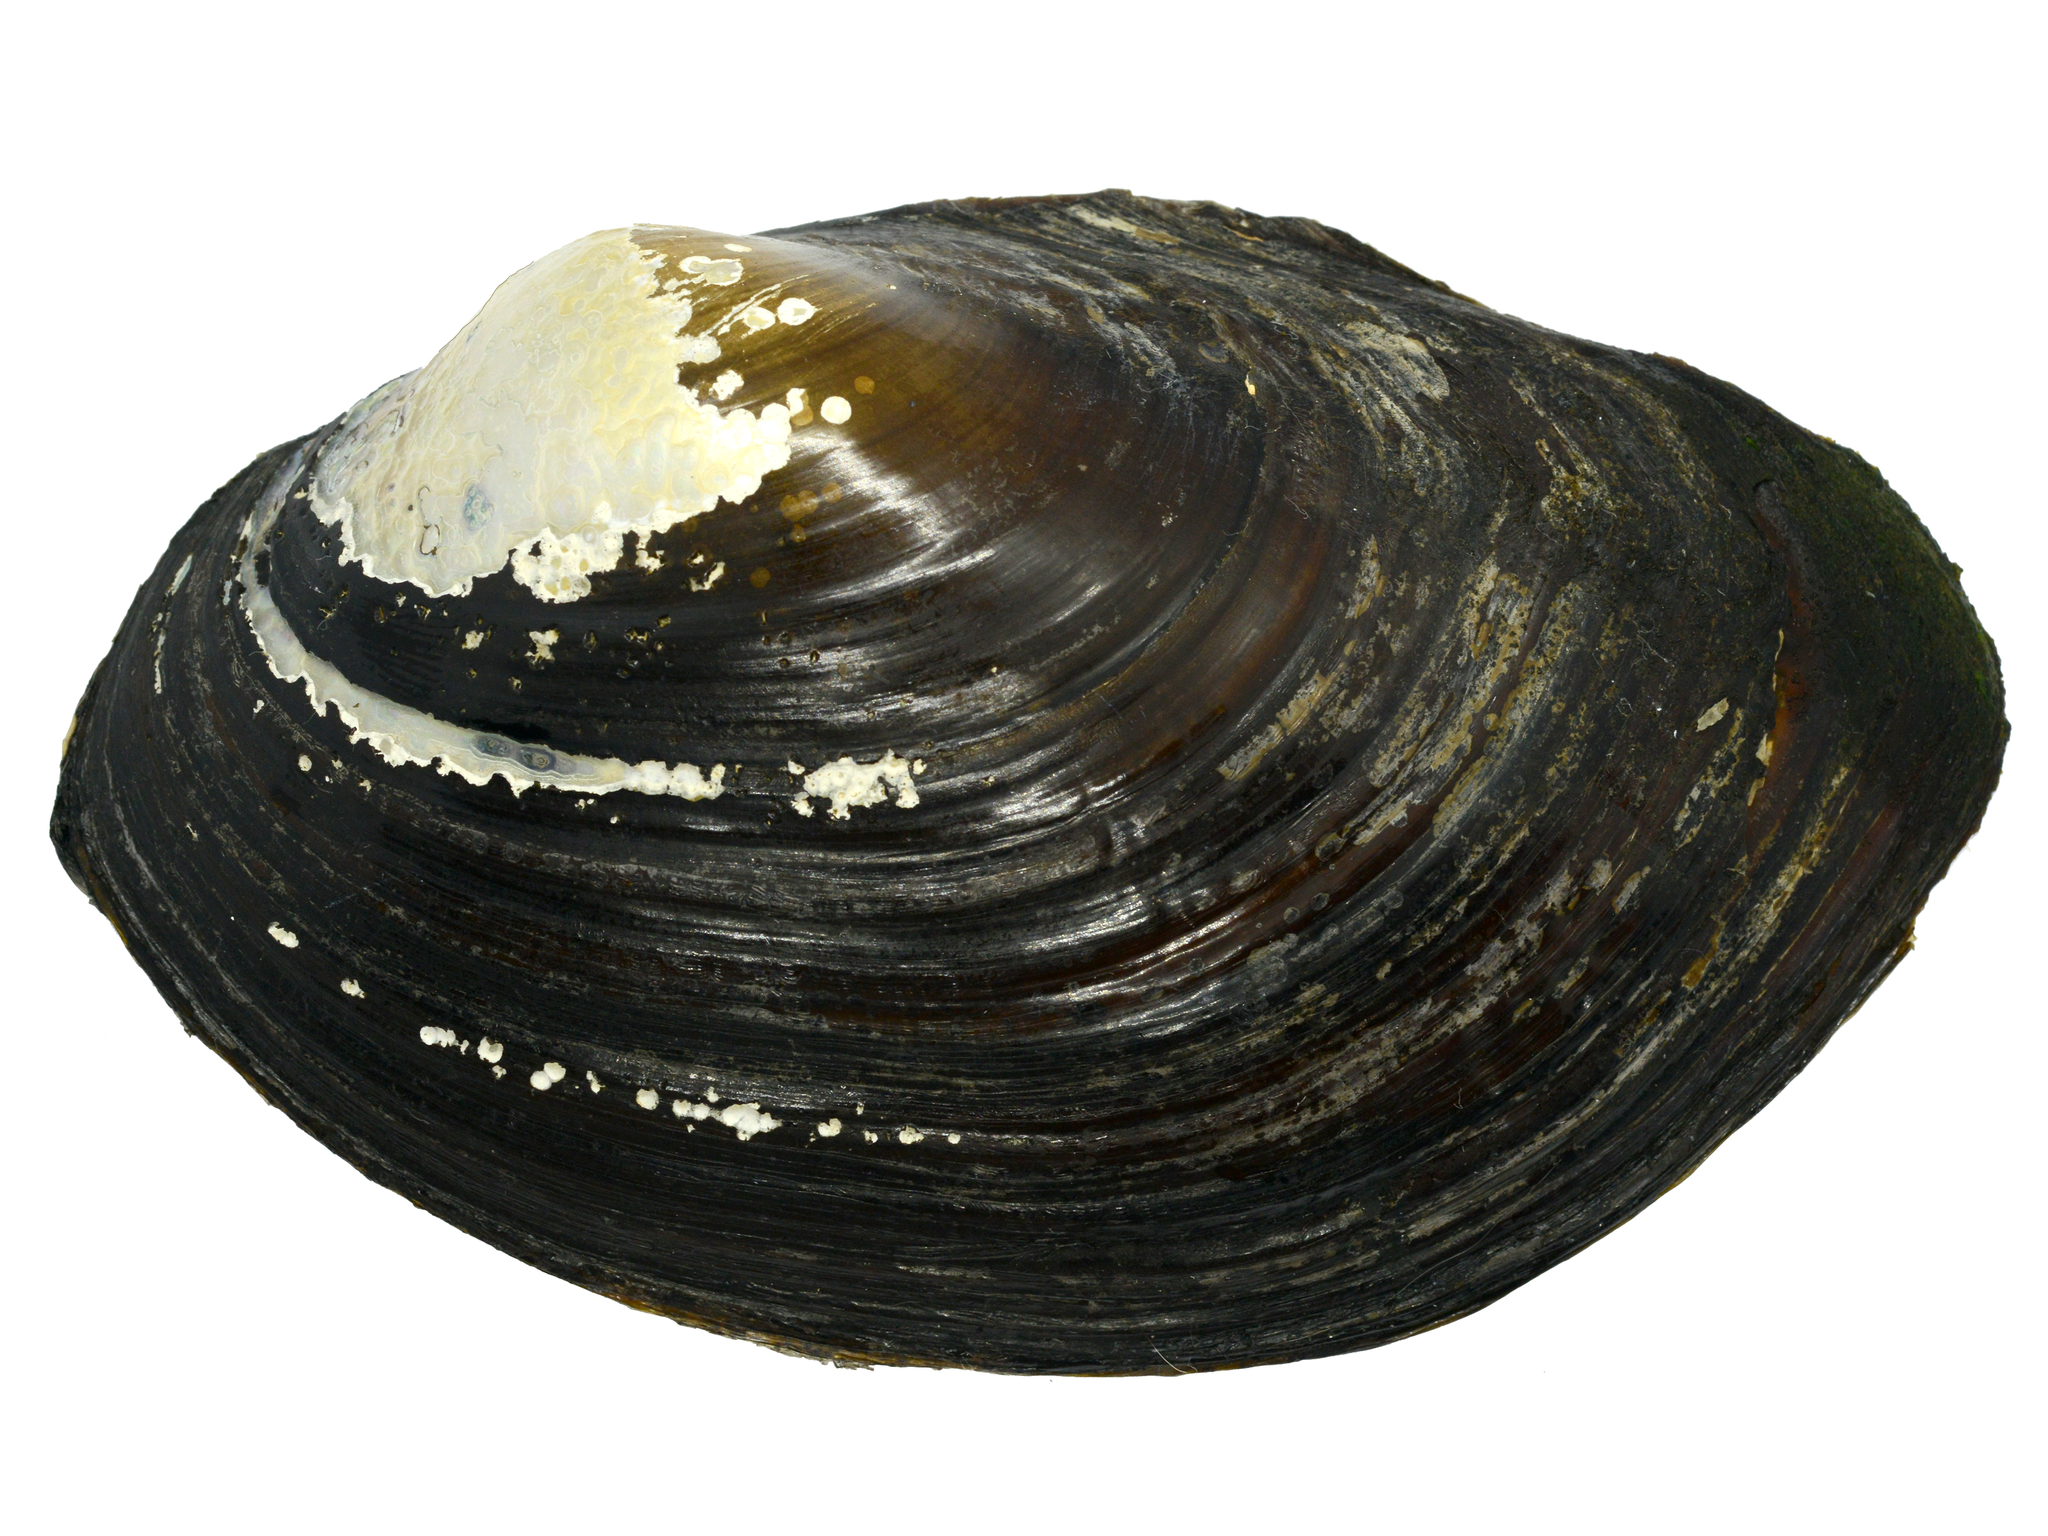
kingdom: Animalia
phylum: Mollusca
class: Bivalvia
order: Unionida
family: Unionidae
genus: Sinanodonta
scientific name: Sinanodonta schrenkii
